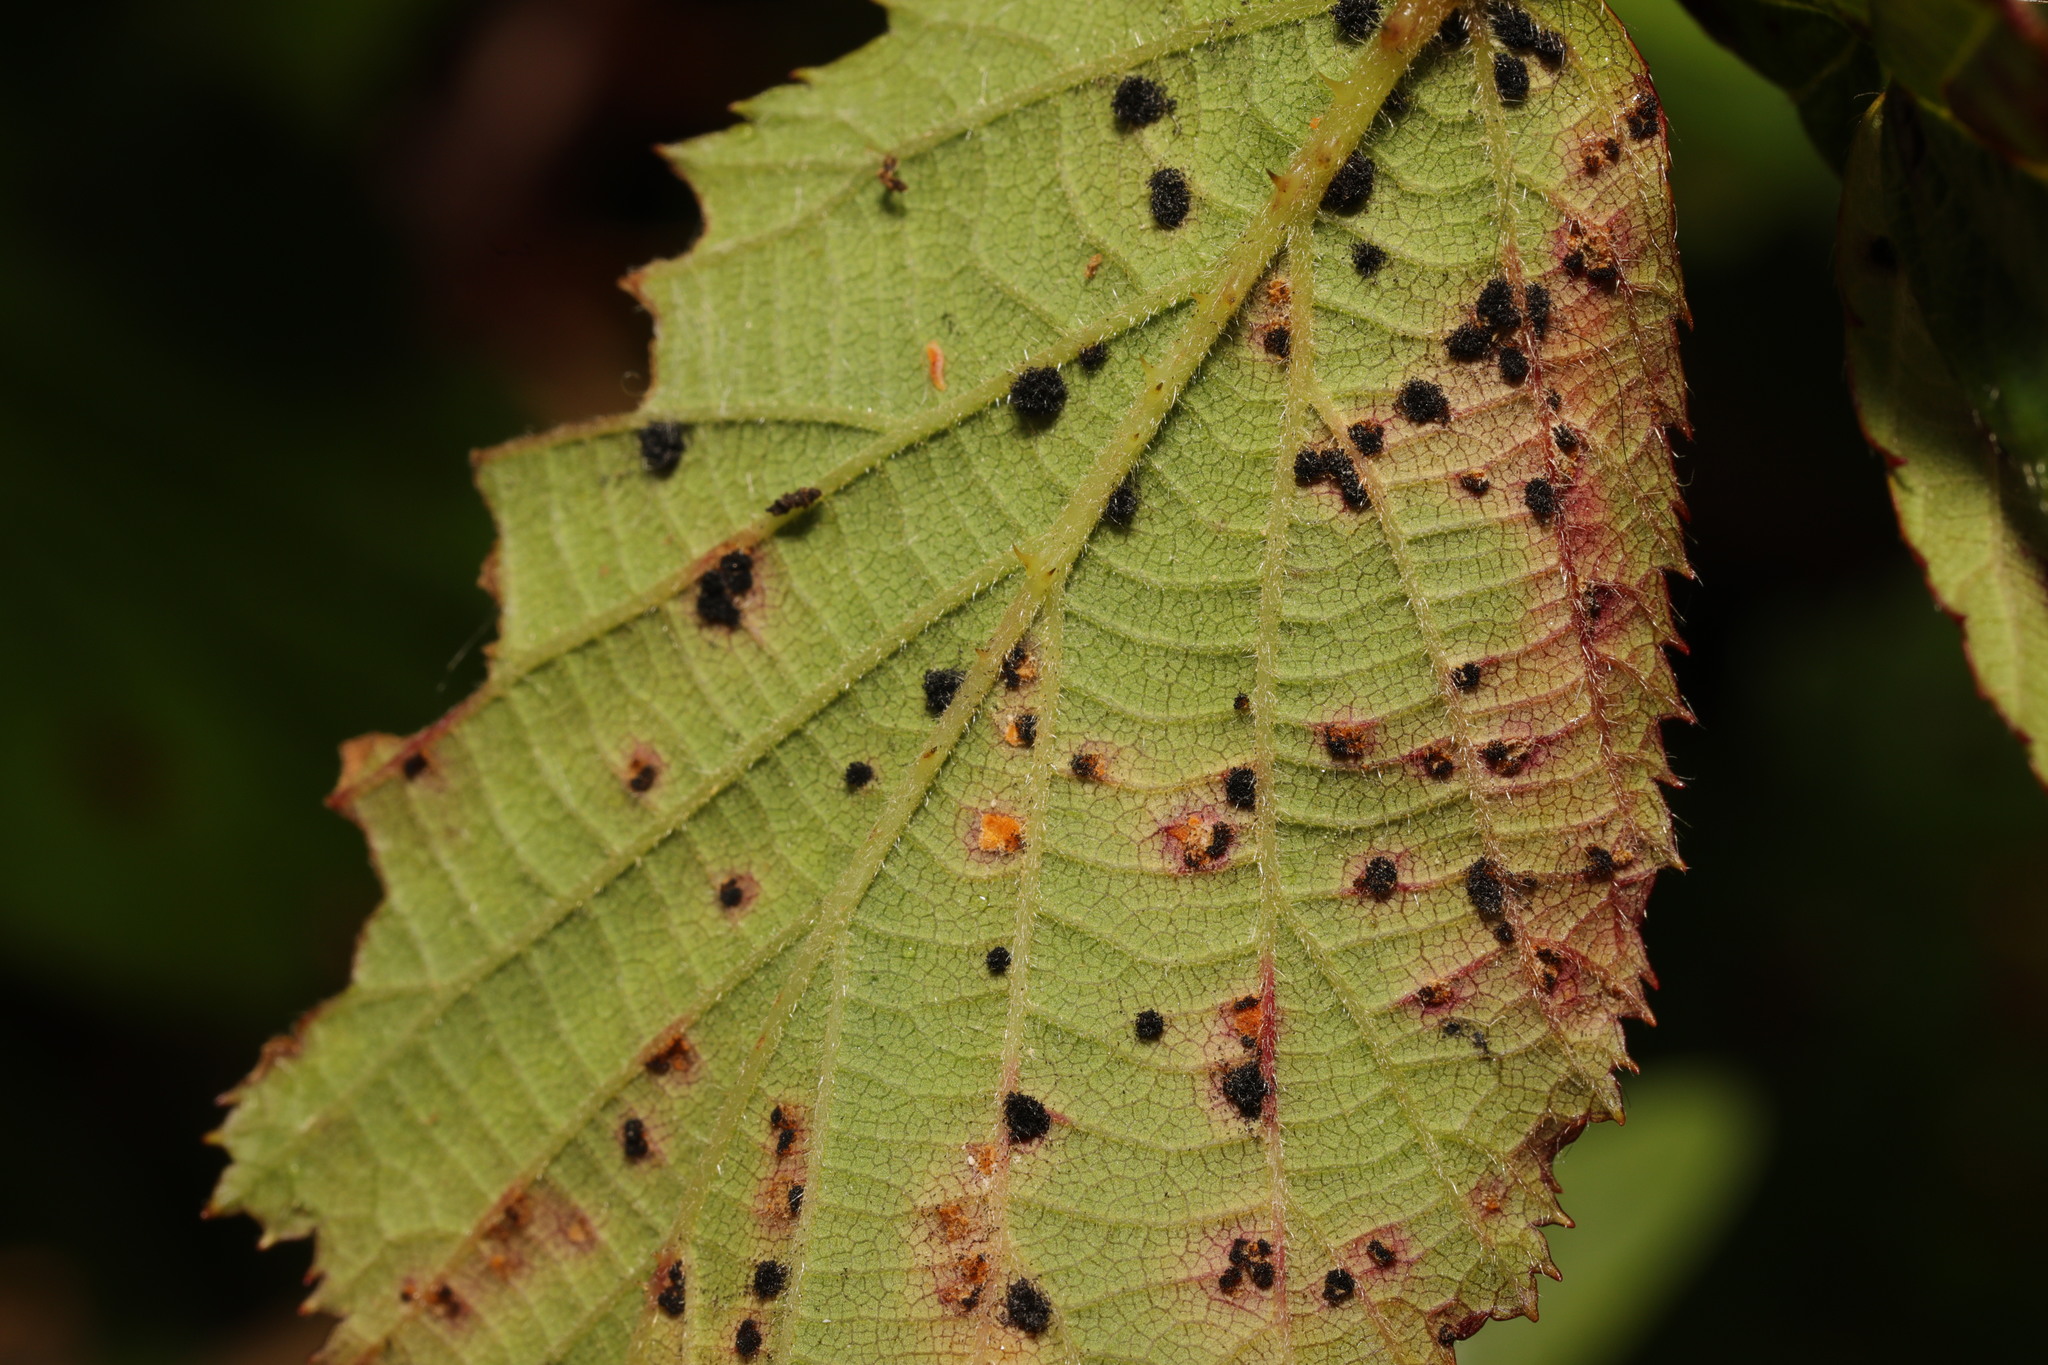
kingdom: Fungi
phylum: Basidiomycota
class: Pucciniomycetes
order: Pucciniales
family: Phragmidiaceae
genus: Phragmidium
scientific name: Phragmidium violaceum
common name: Violet bramble rust
